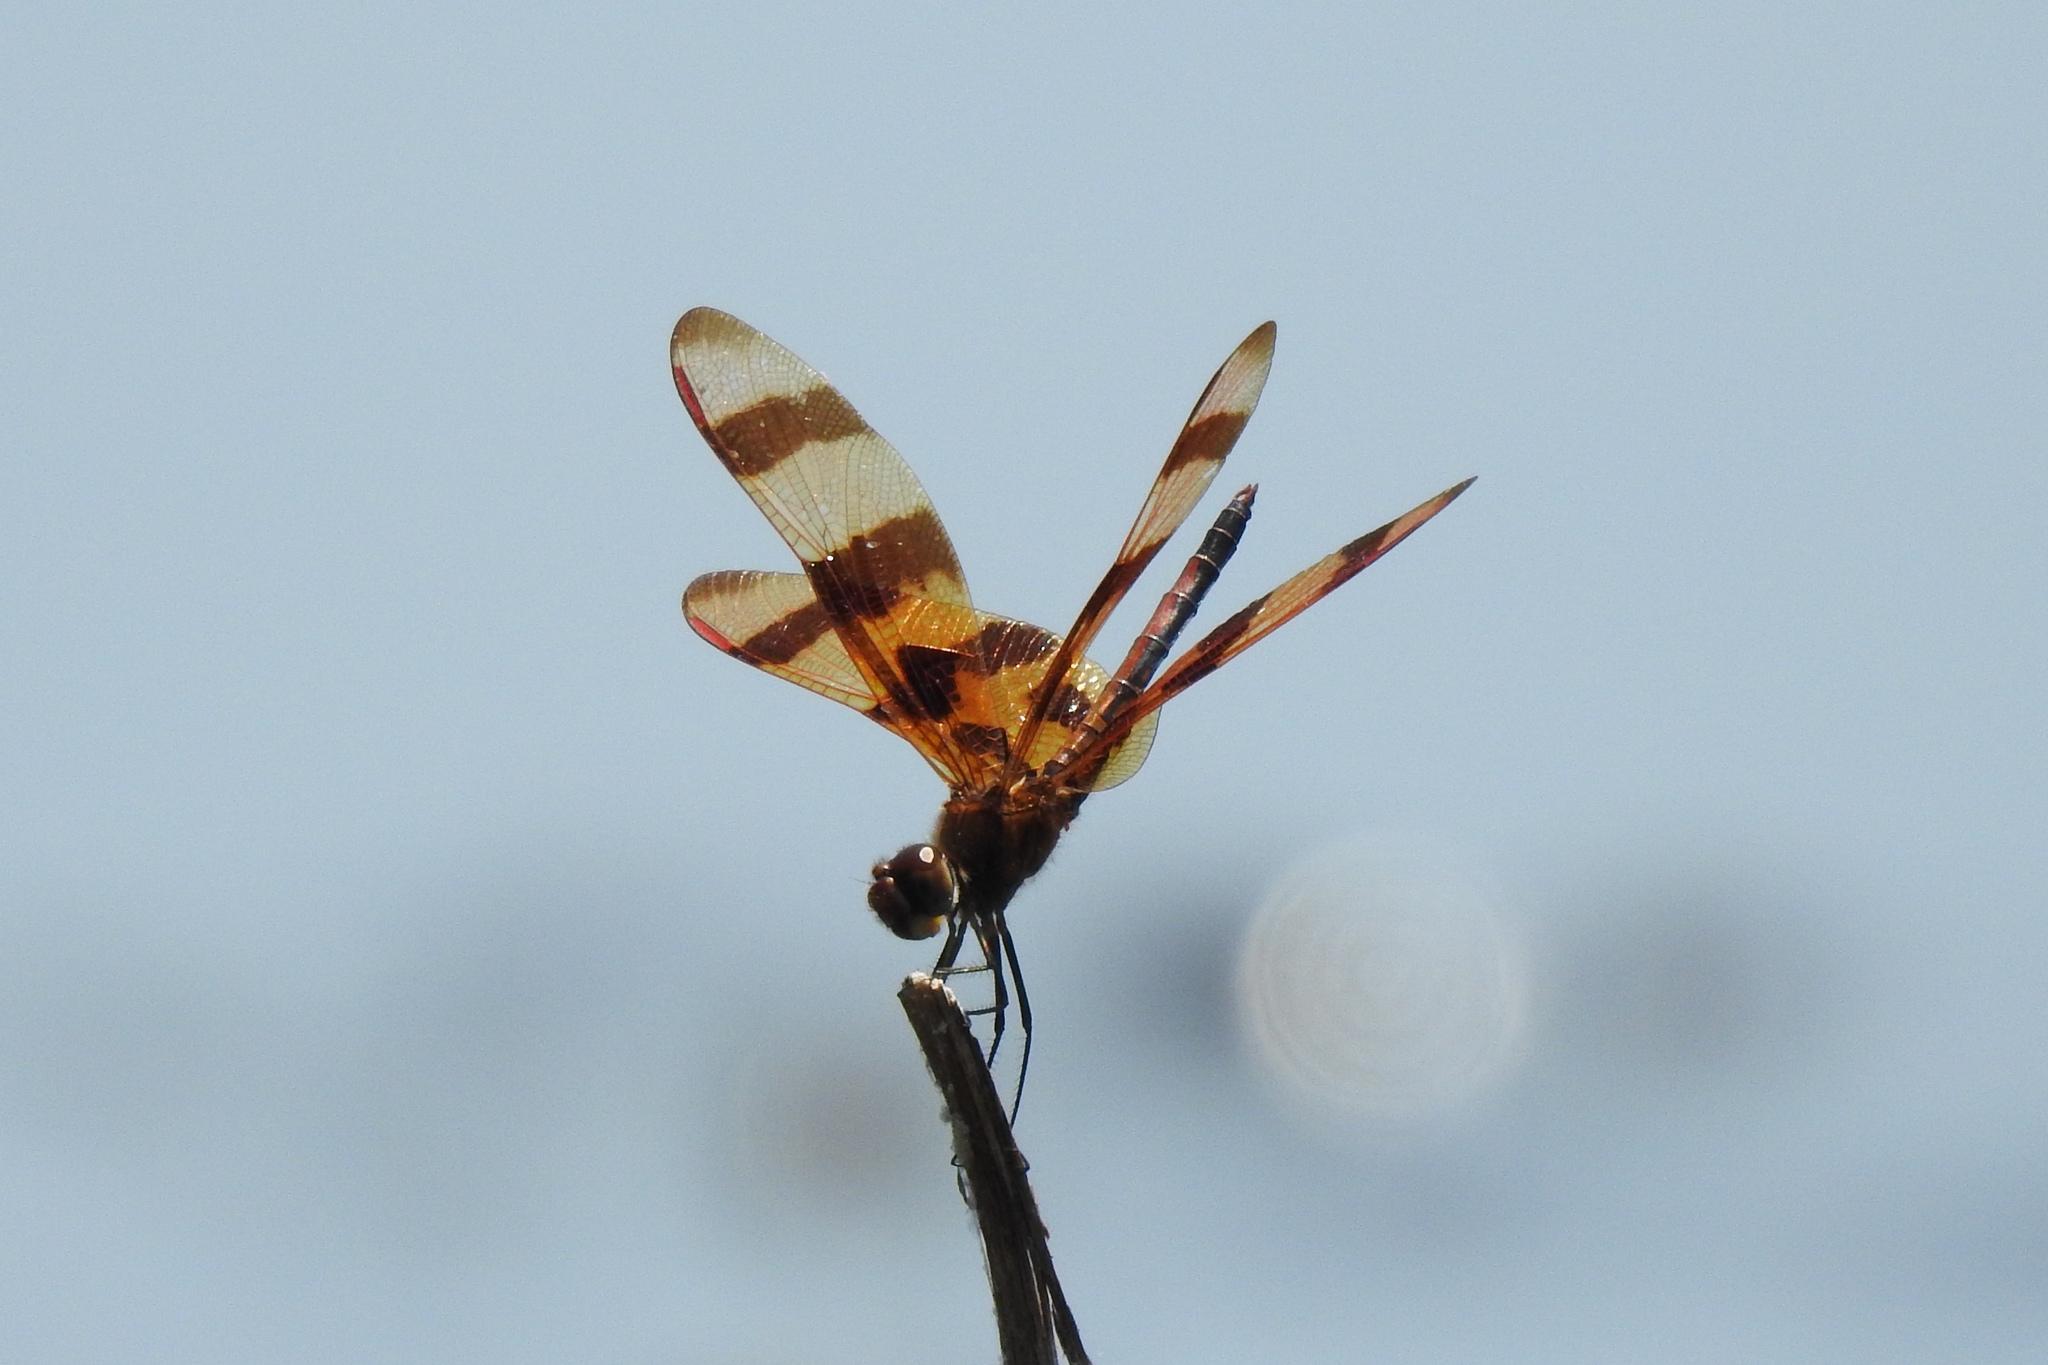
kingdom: Animalia
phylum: Arthropoda
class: Insecta
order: Odonata
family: Libellulidae
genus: Celithemis
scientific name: Celithemis eponina
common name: Halloween pennant
